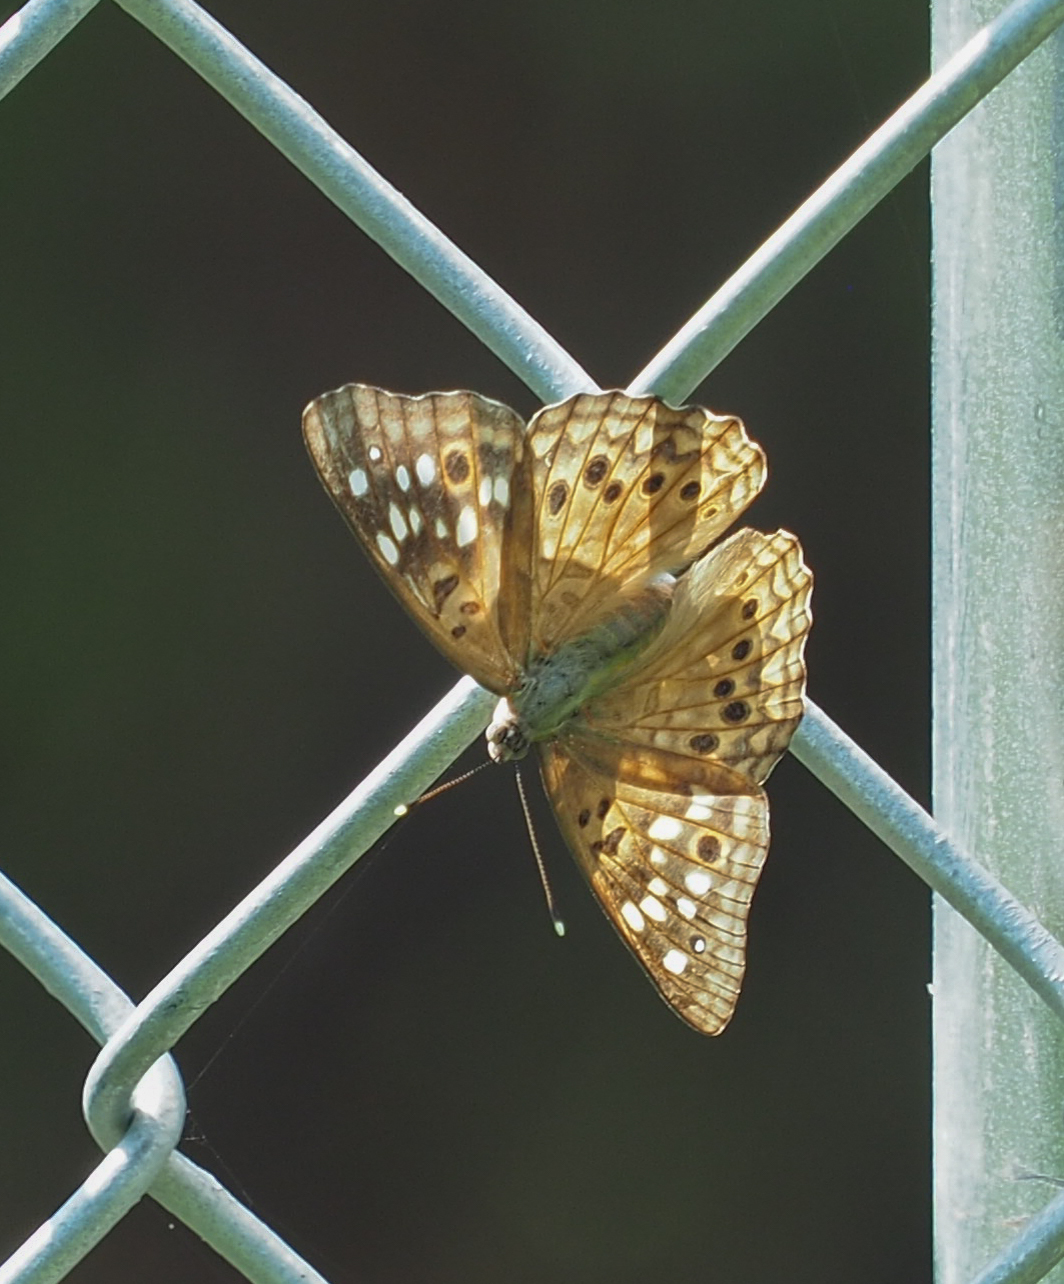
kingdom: Animalia
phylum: Arthropoda
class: Insecta
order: Lepidoptera
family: Nymphalidae
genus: Asterocampa
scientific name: Asterocampa celtis
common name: Hackberry emperor
